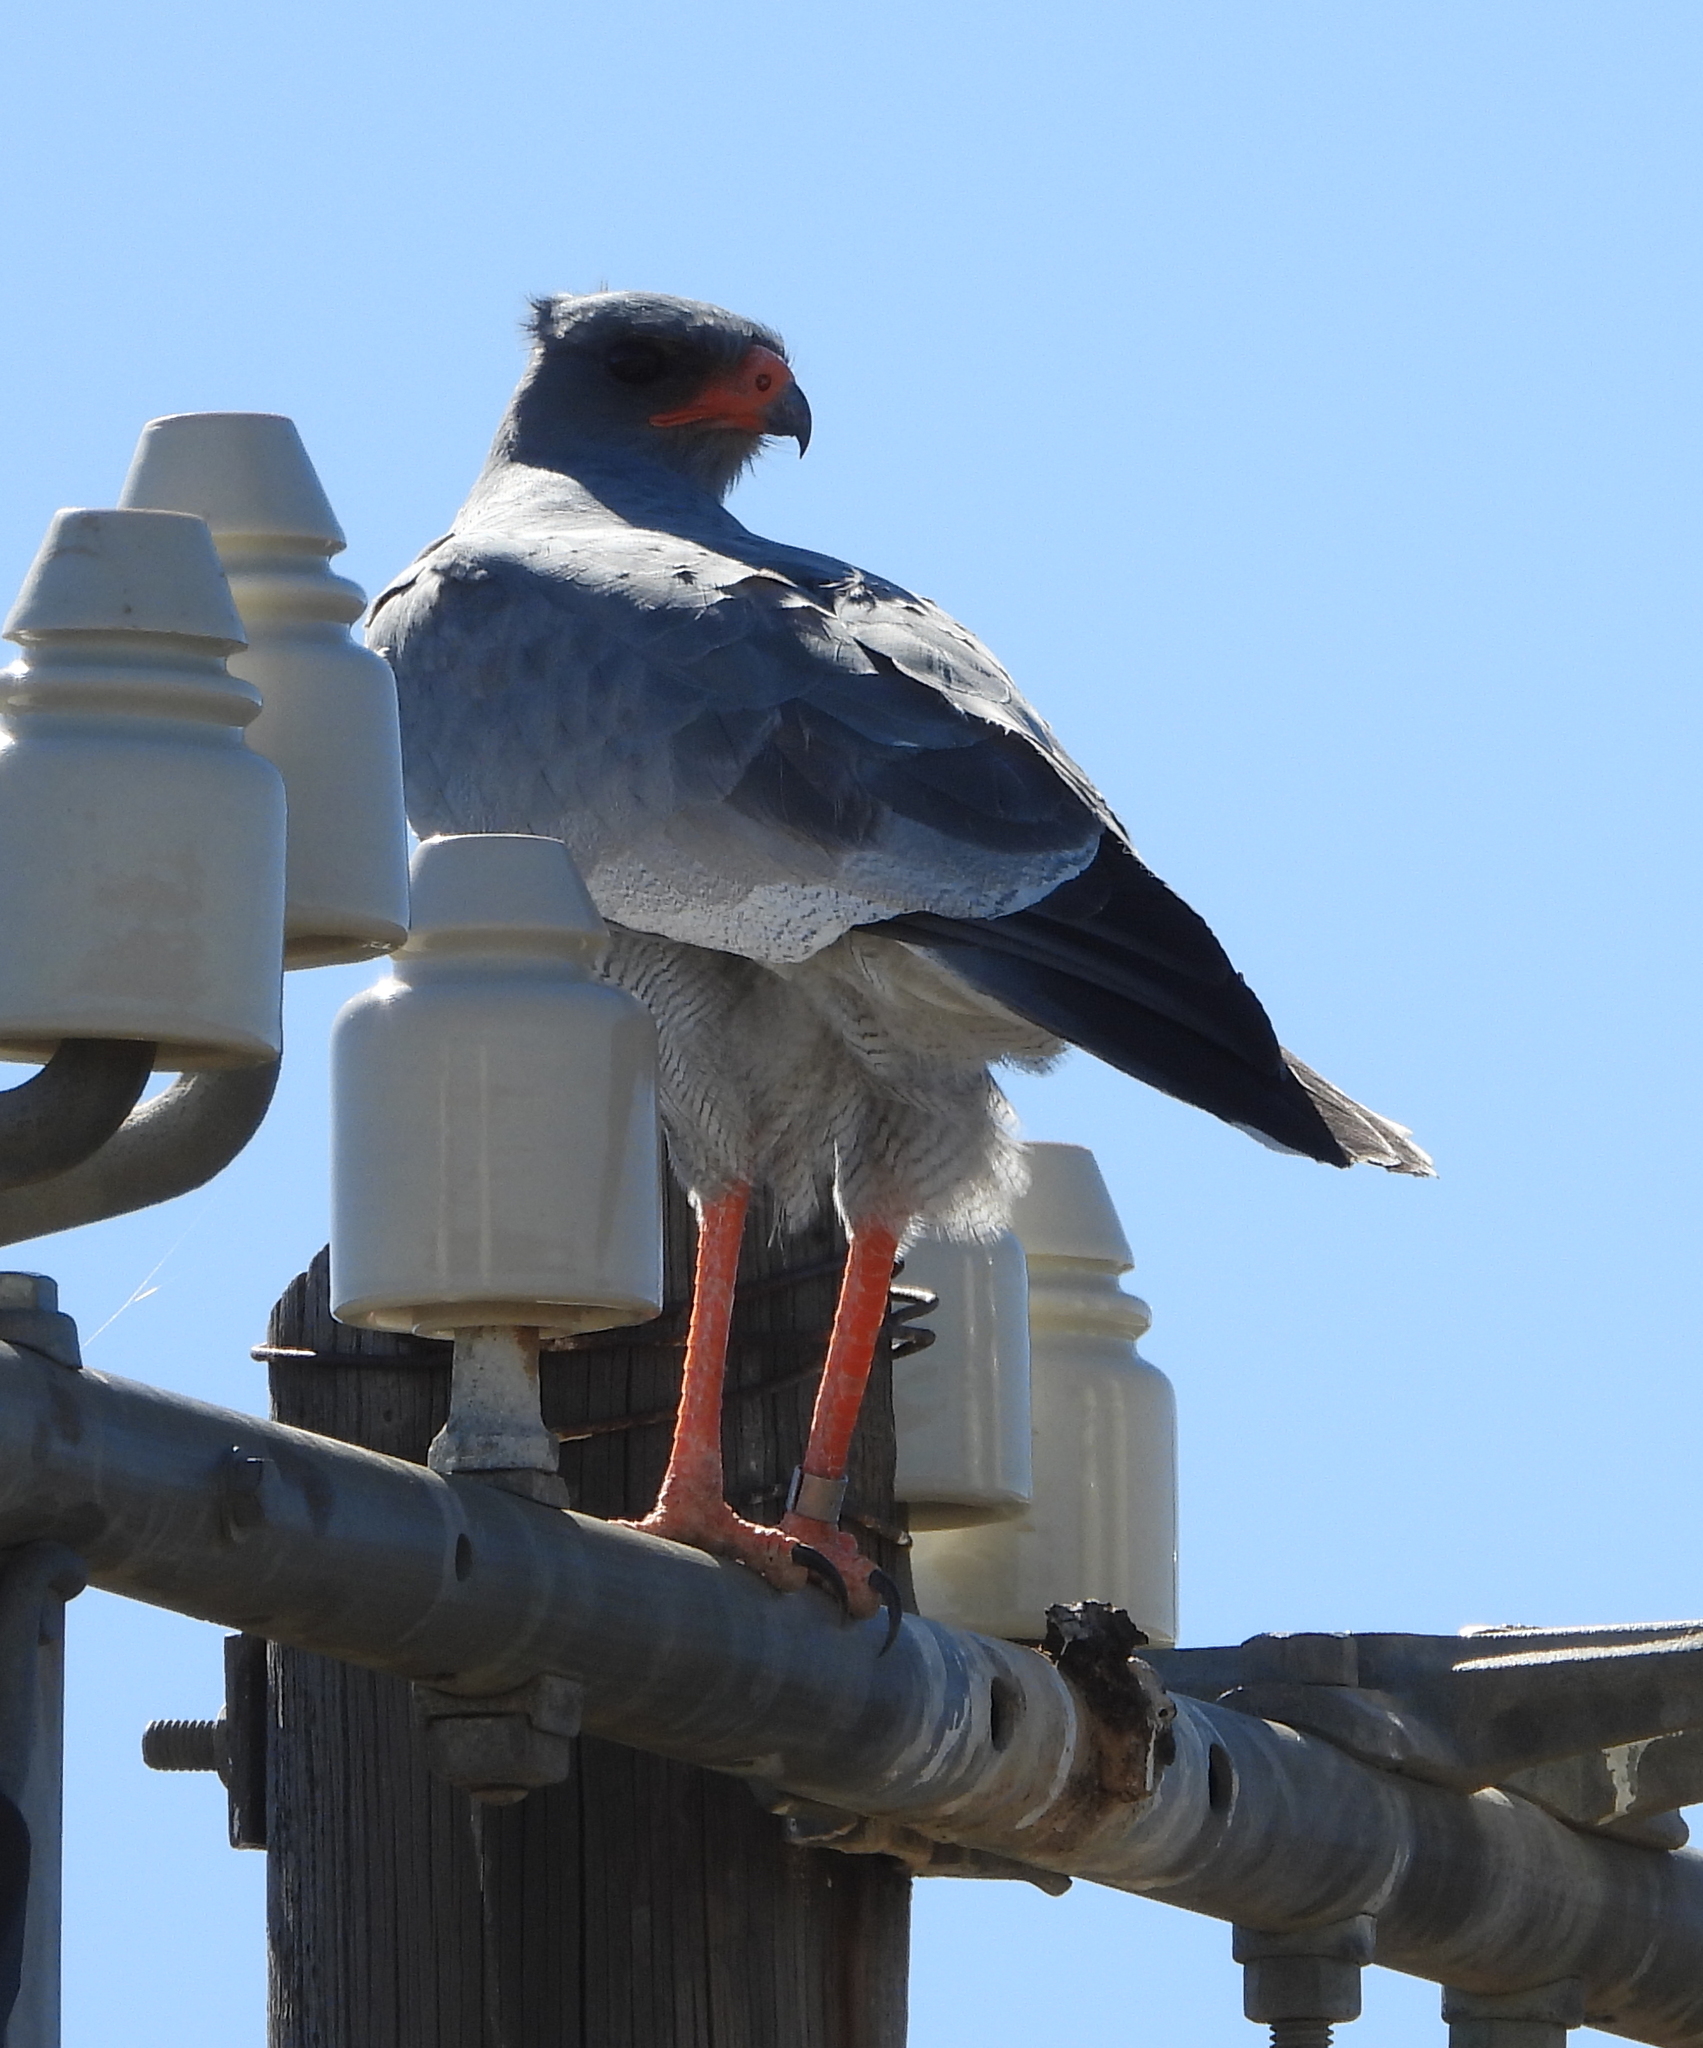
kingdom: Animalia
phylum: Chordata
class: Aves
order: Accipitriformes
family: Accipitridae
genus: Melierax
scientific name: Melierax canorus
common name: Pale chanting-goshawk
